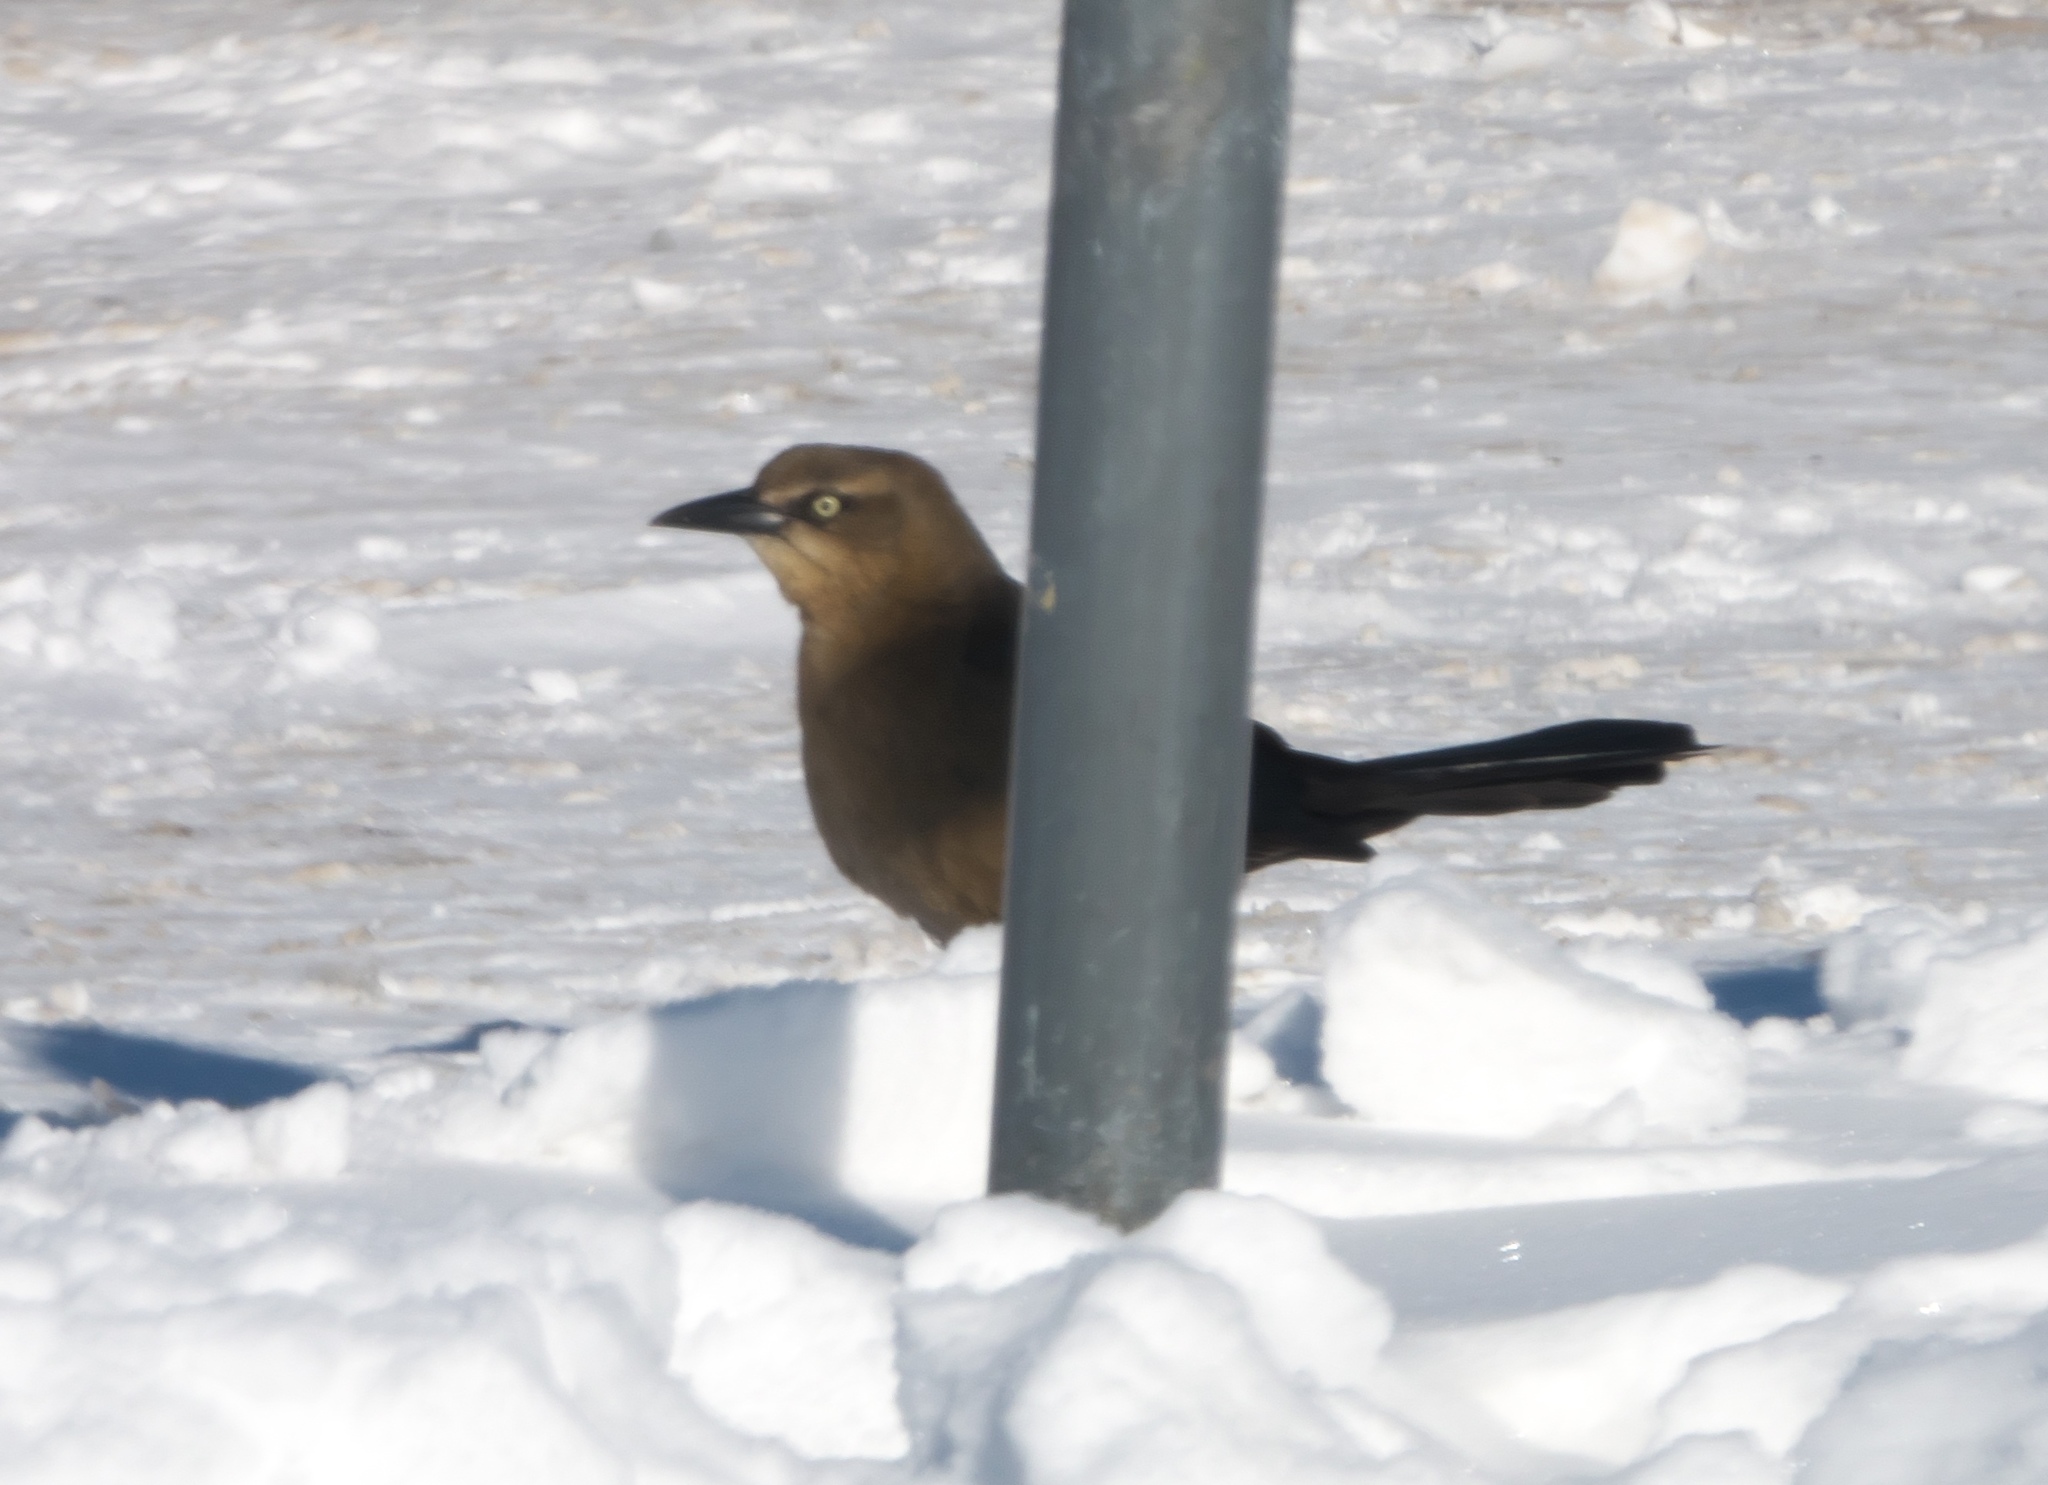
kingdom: Animalia
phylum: Chordata
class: Aves
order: Passeriformes
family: Icteridae
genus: Quiscalus
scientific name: Quiscalus mexicanus
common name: Great-tailed grackle
